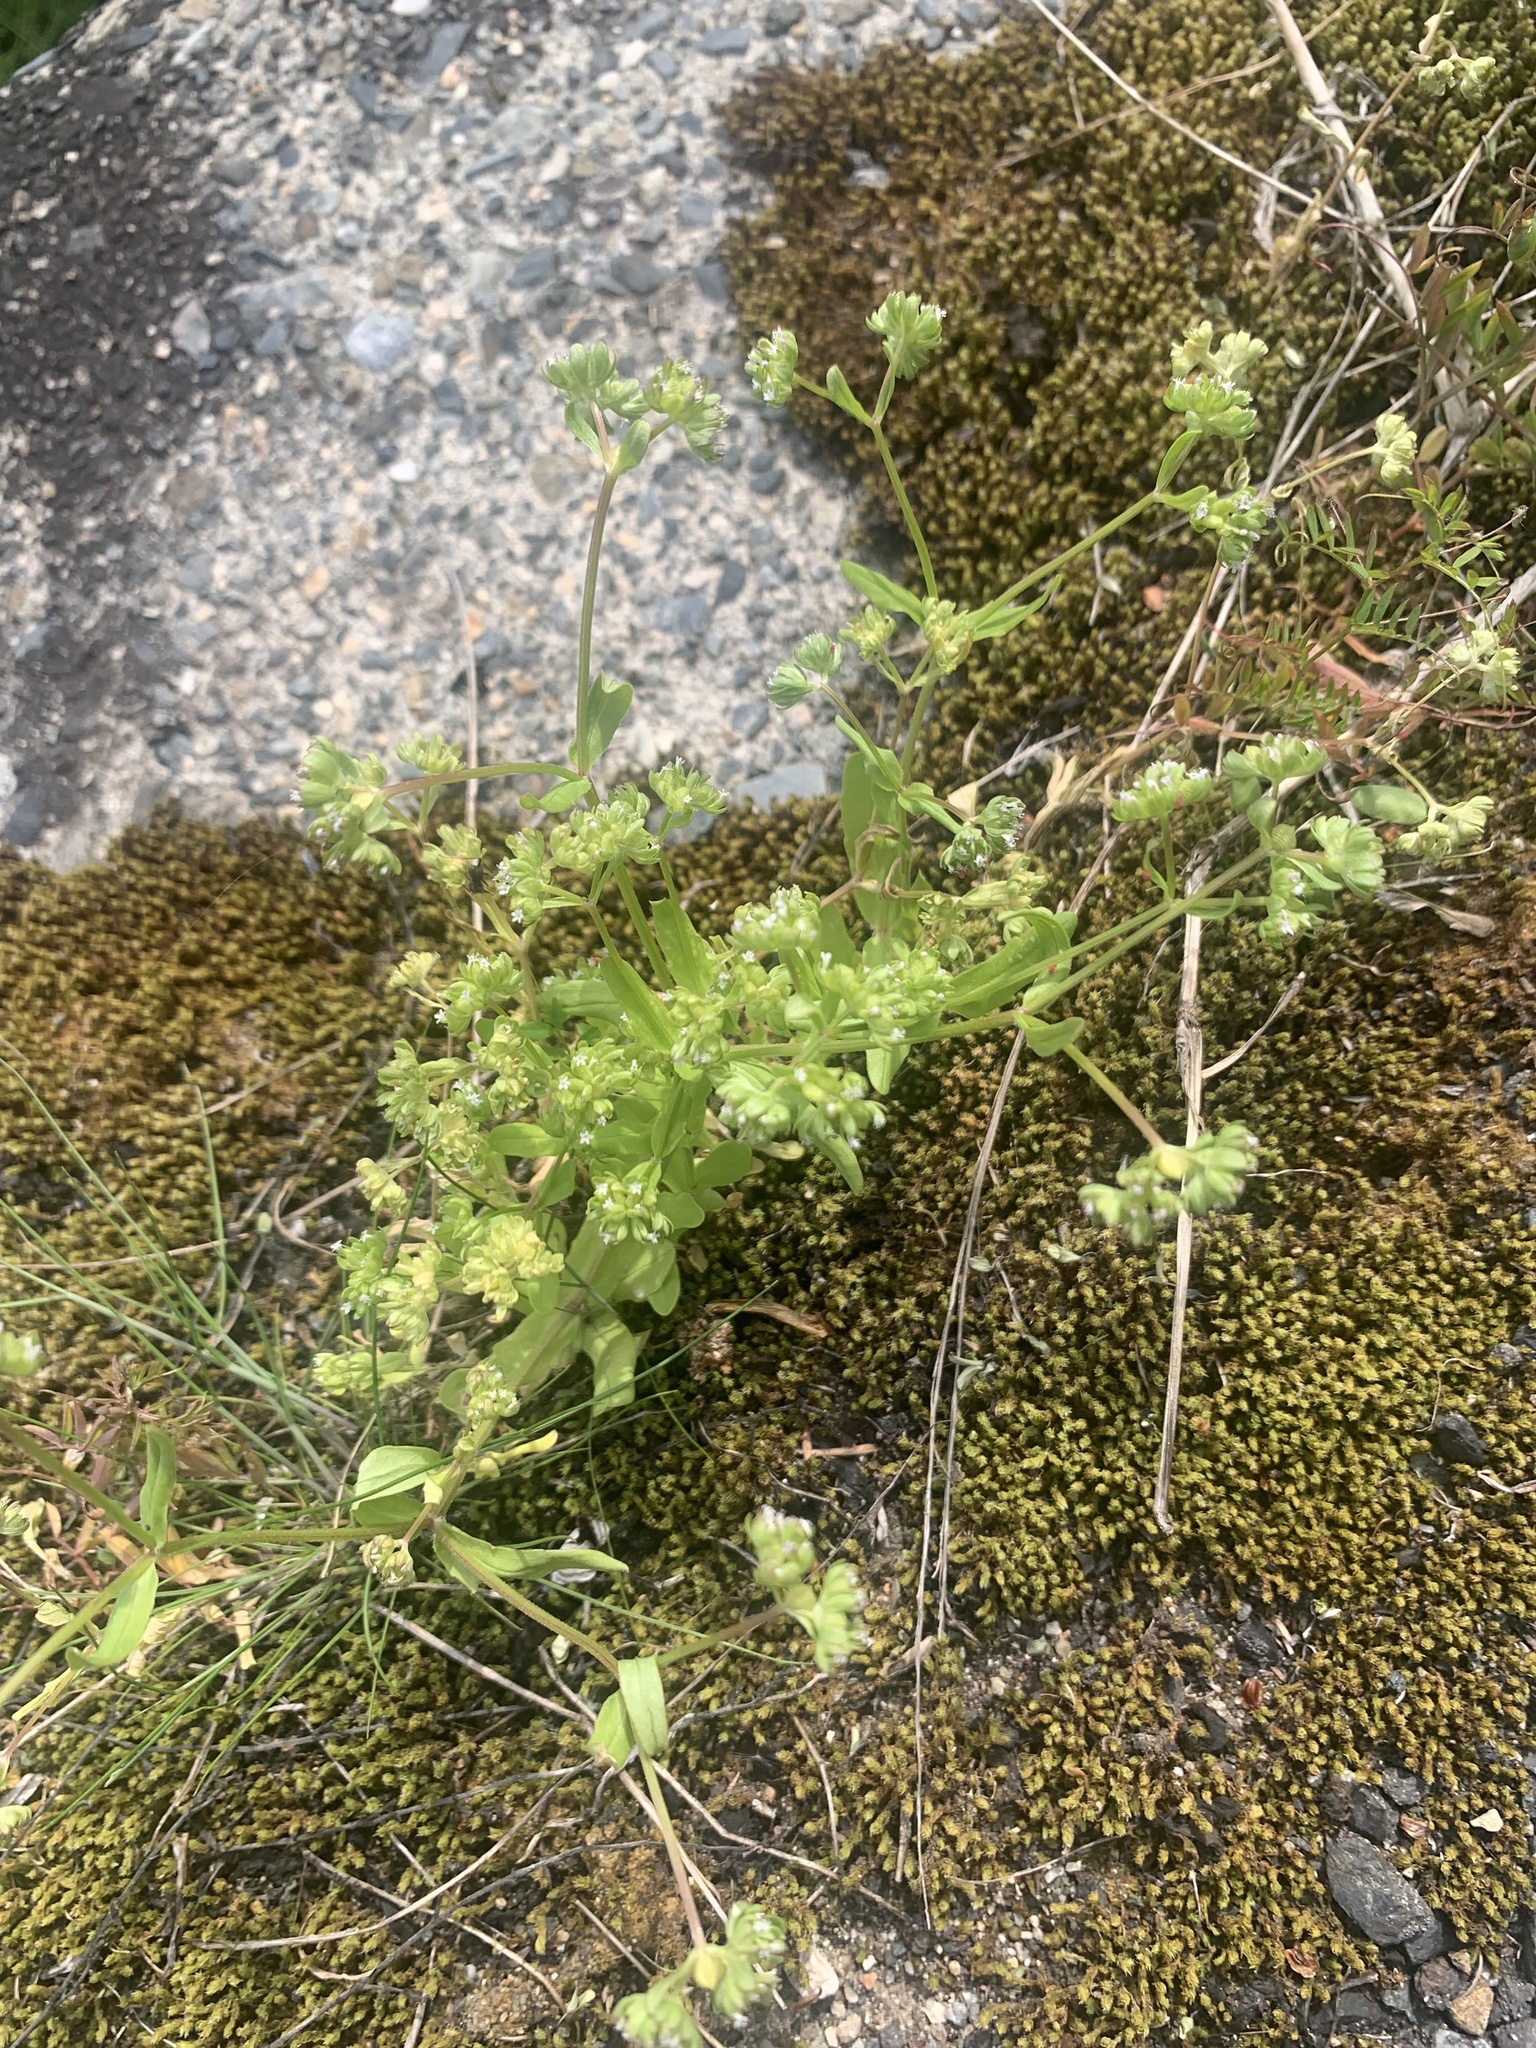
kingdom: Plantae
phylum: Tracheophyta
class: Magnoliopsida
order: Dipsacales
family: Caprifoliaceae
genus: Valerianella
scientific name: Valerianella locusta
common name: Common cornsalad
